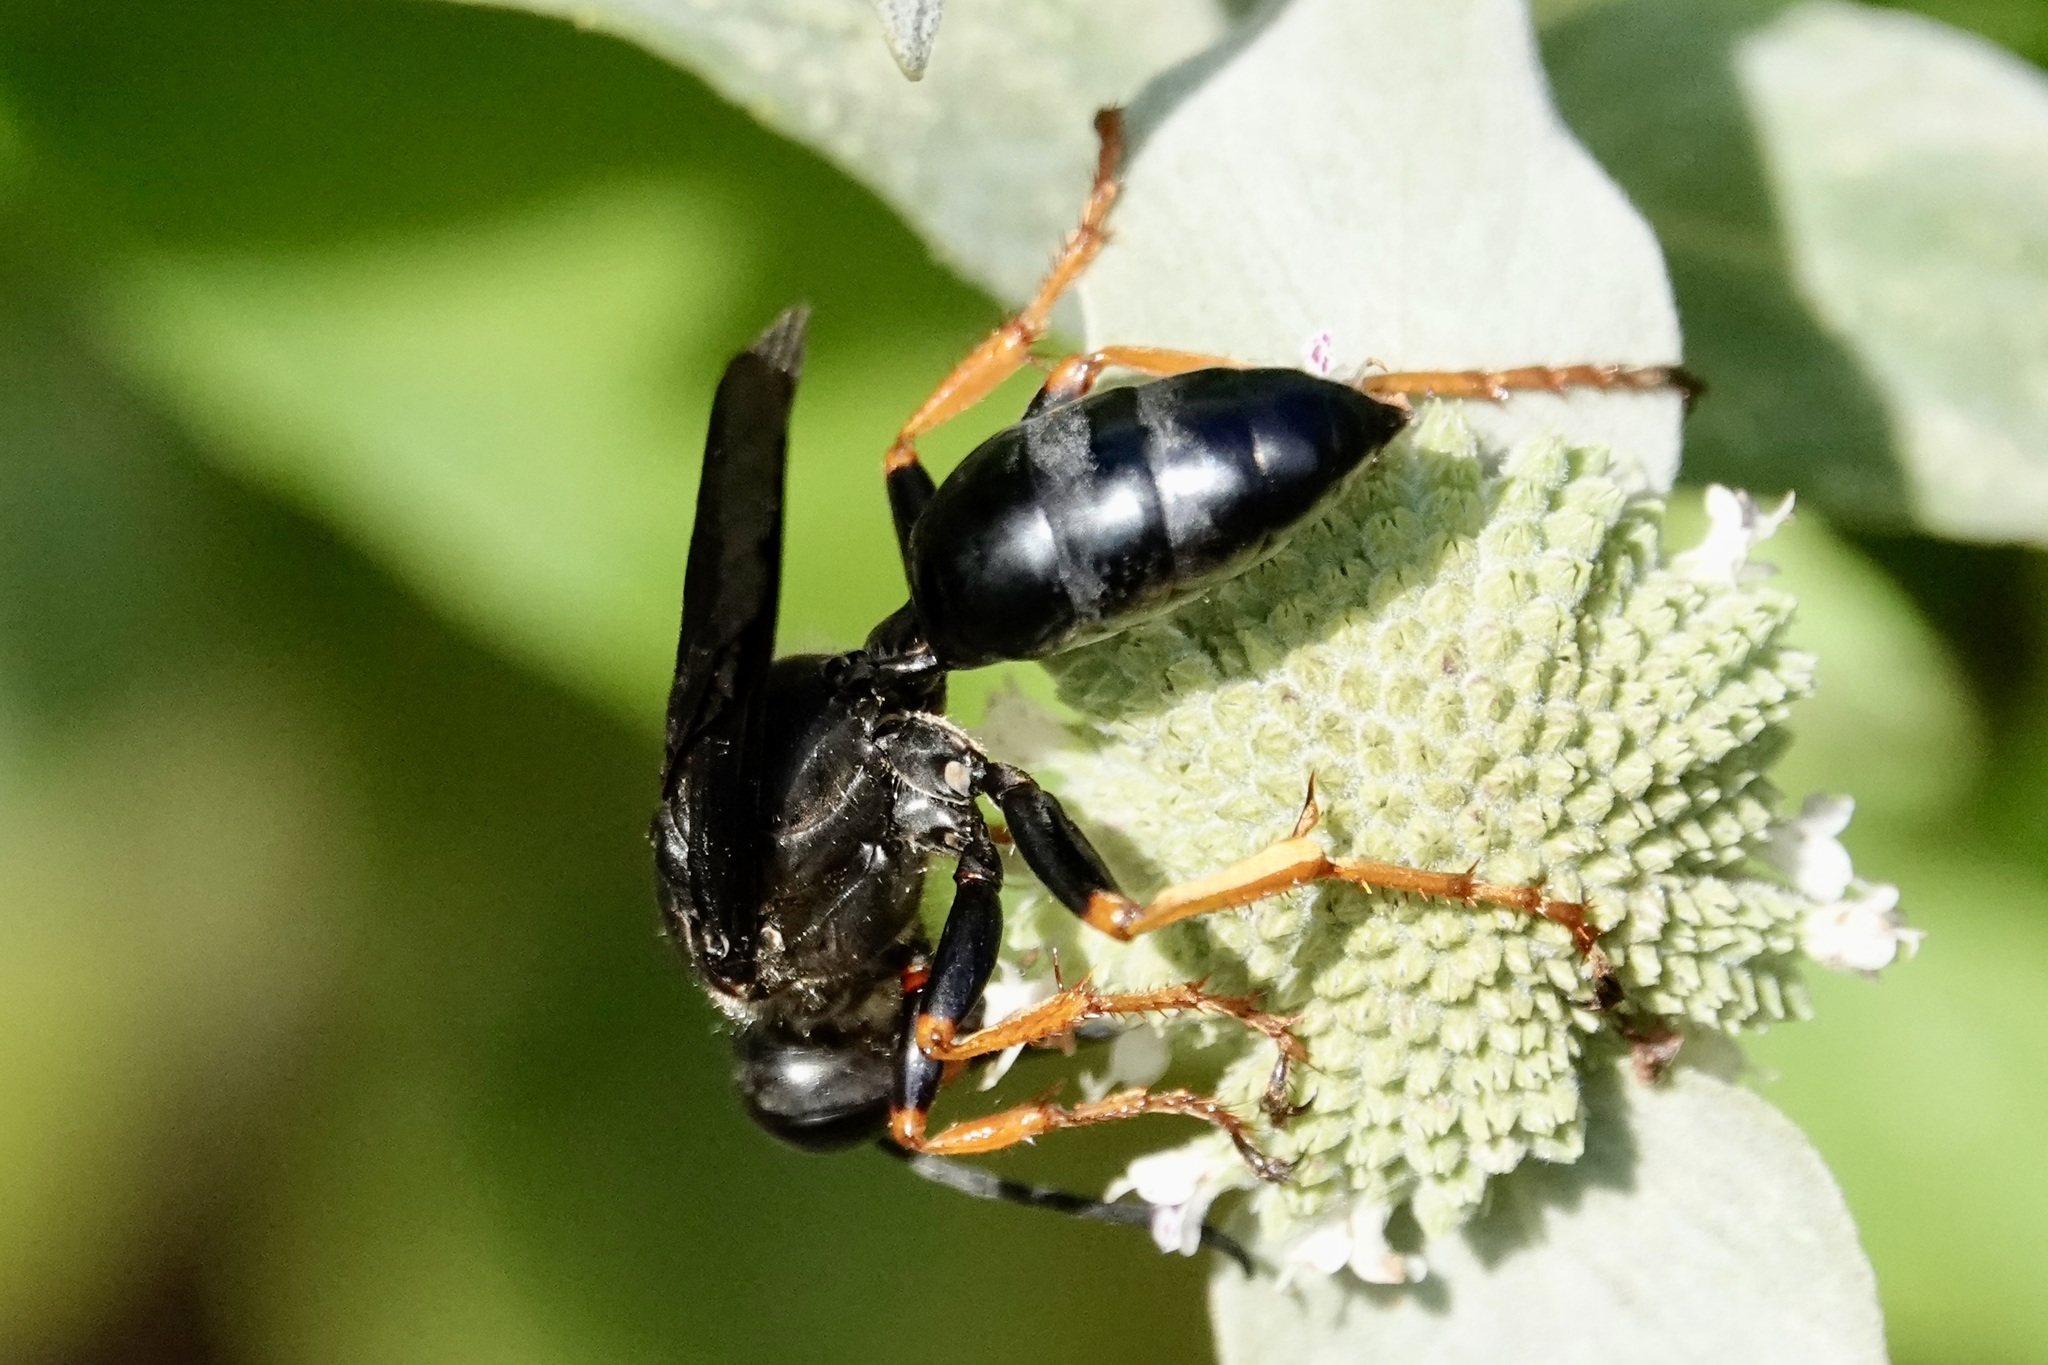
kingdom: Animalia
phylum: Arthropoda
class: Insecta
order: Hymenoptera
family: Sphecidae
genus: Sphex
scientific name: Sphex nudus
